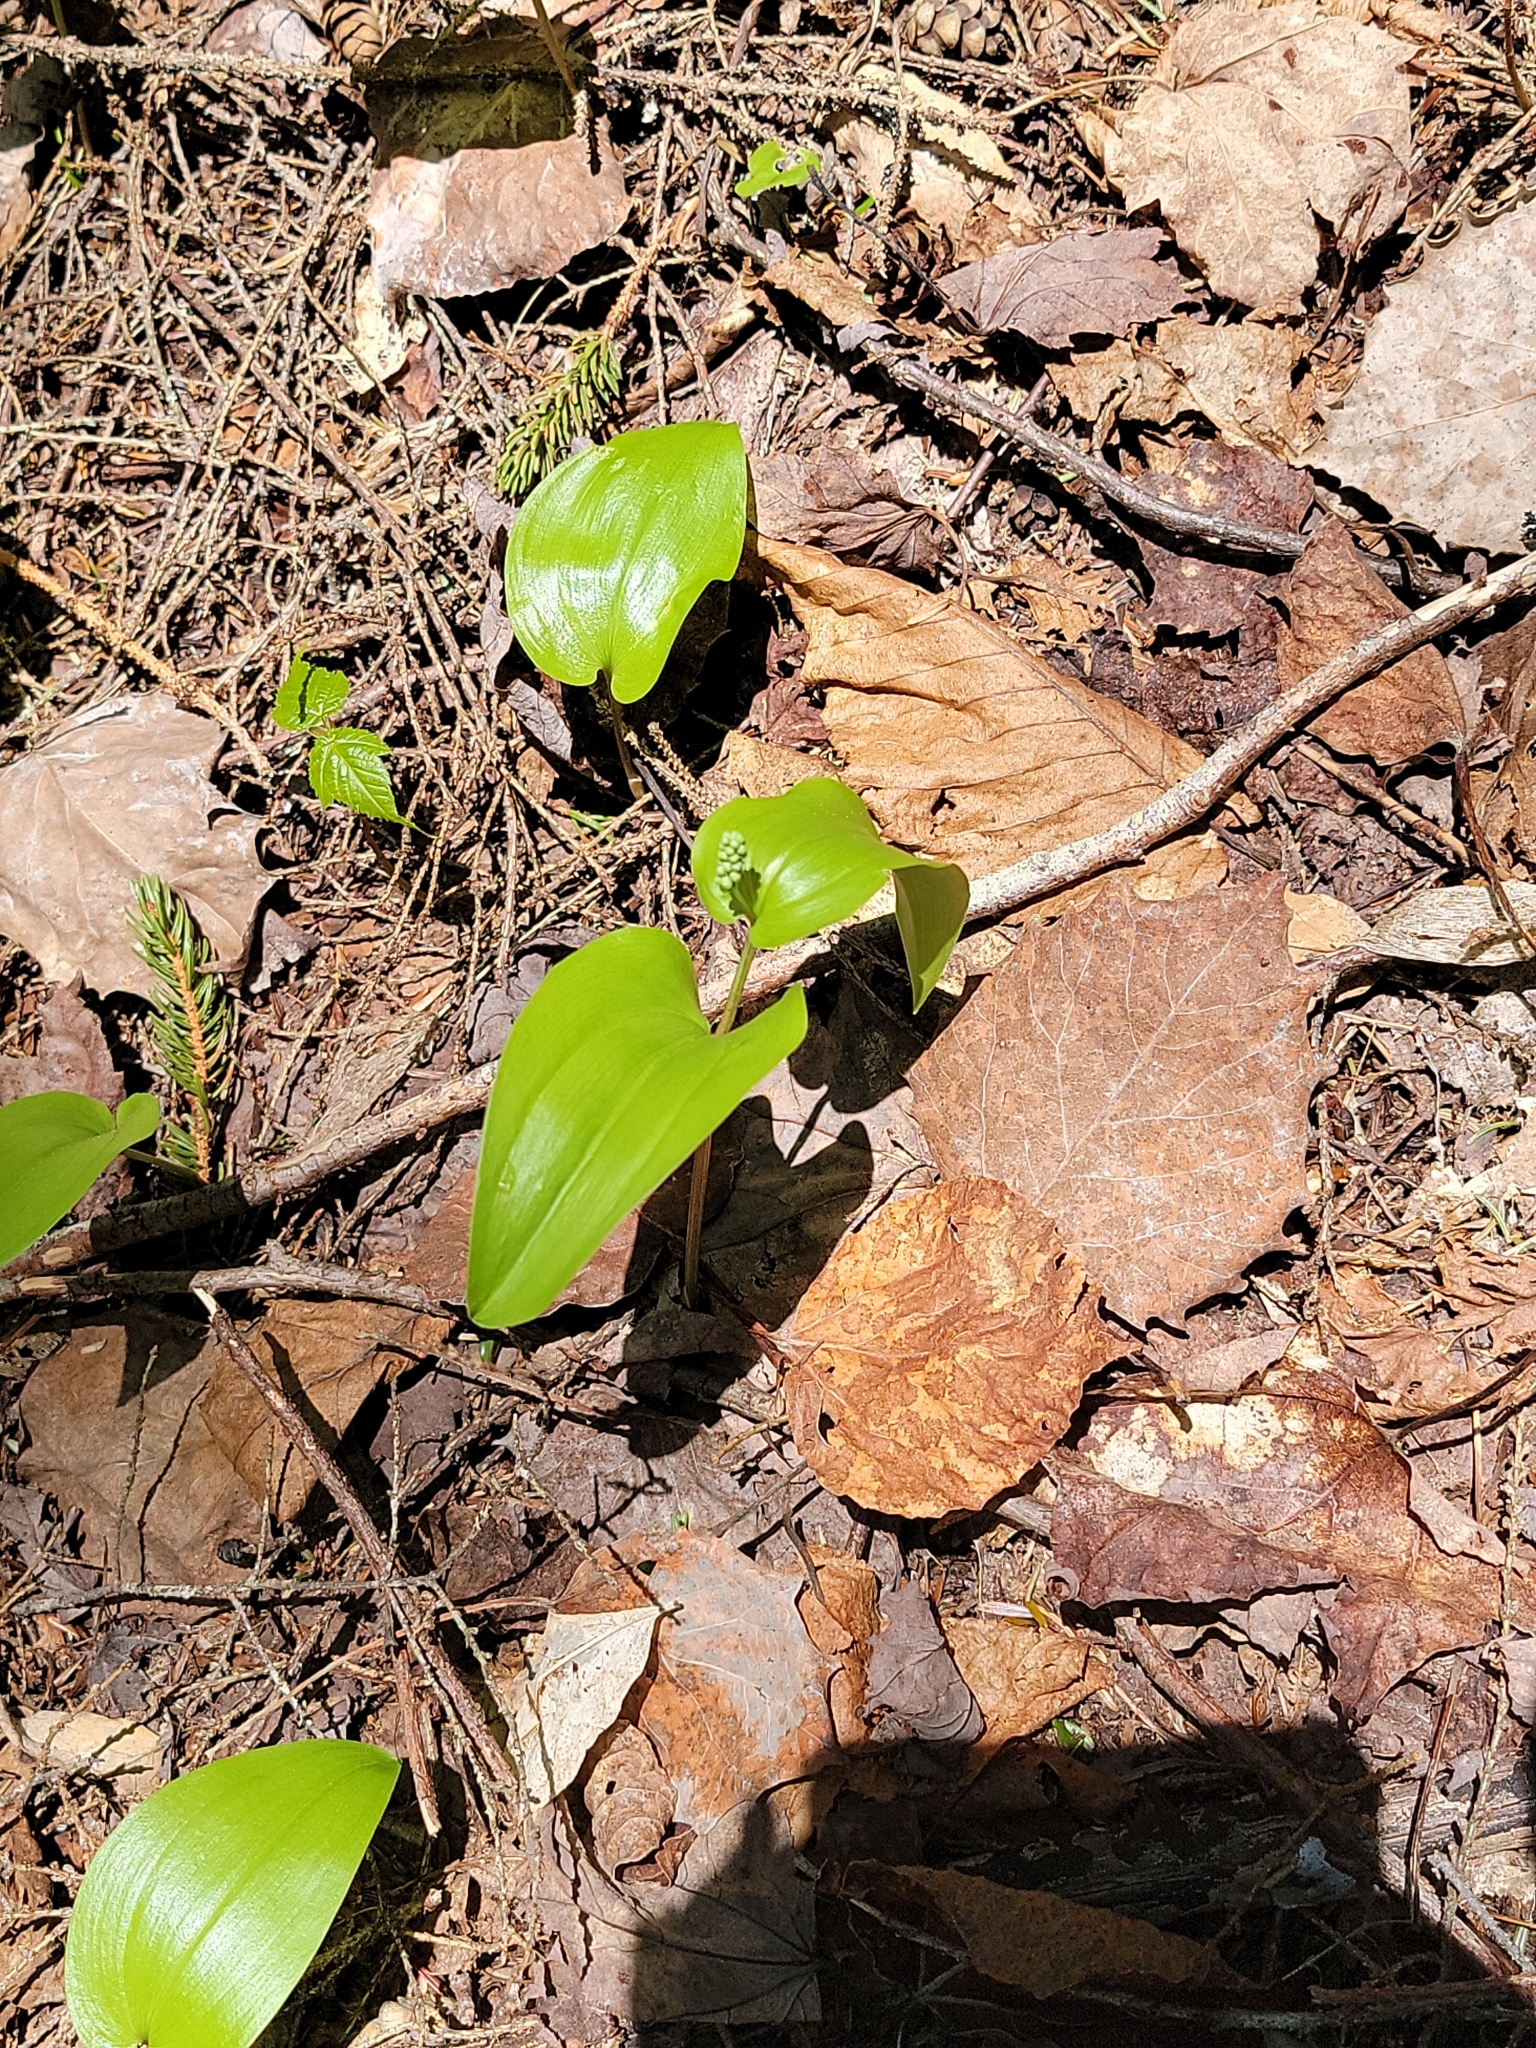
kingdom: Plantae
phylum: Tracheophyta
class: Liliopsida
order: Asparagales
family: Asparagaceae
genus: Maianthemum
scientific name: Maianthemum canadense
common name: False lily-of-the-valley
